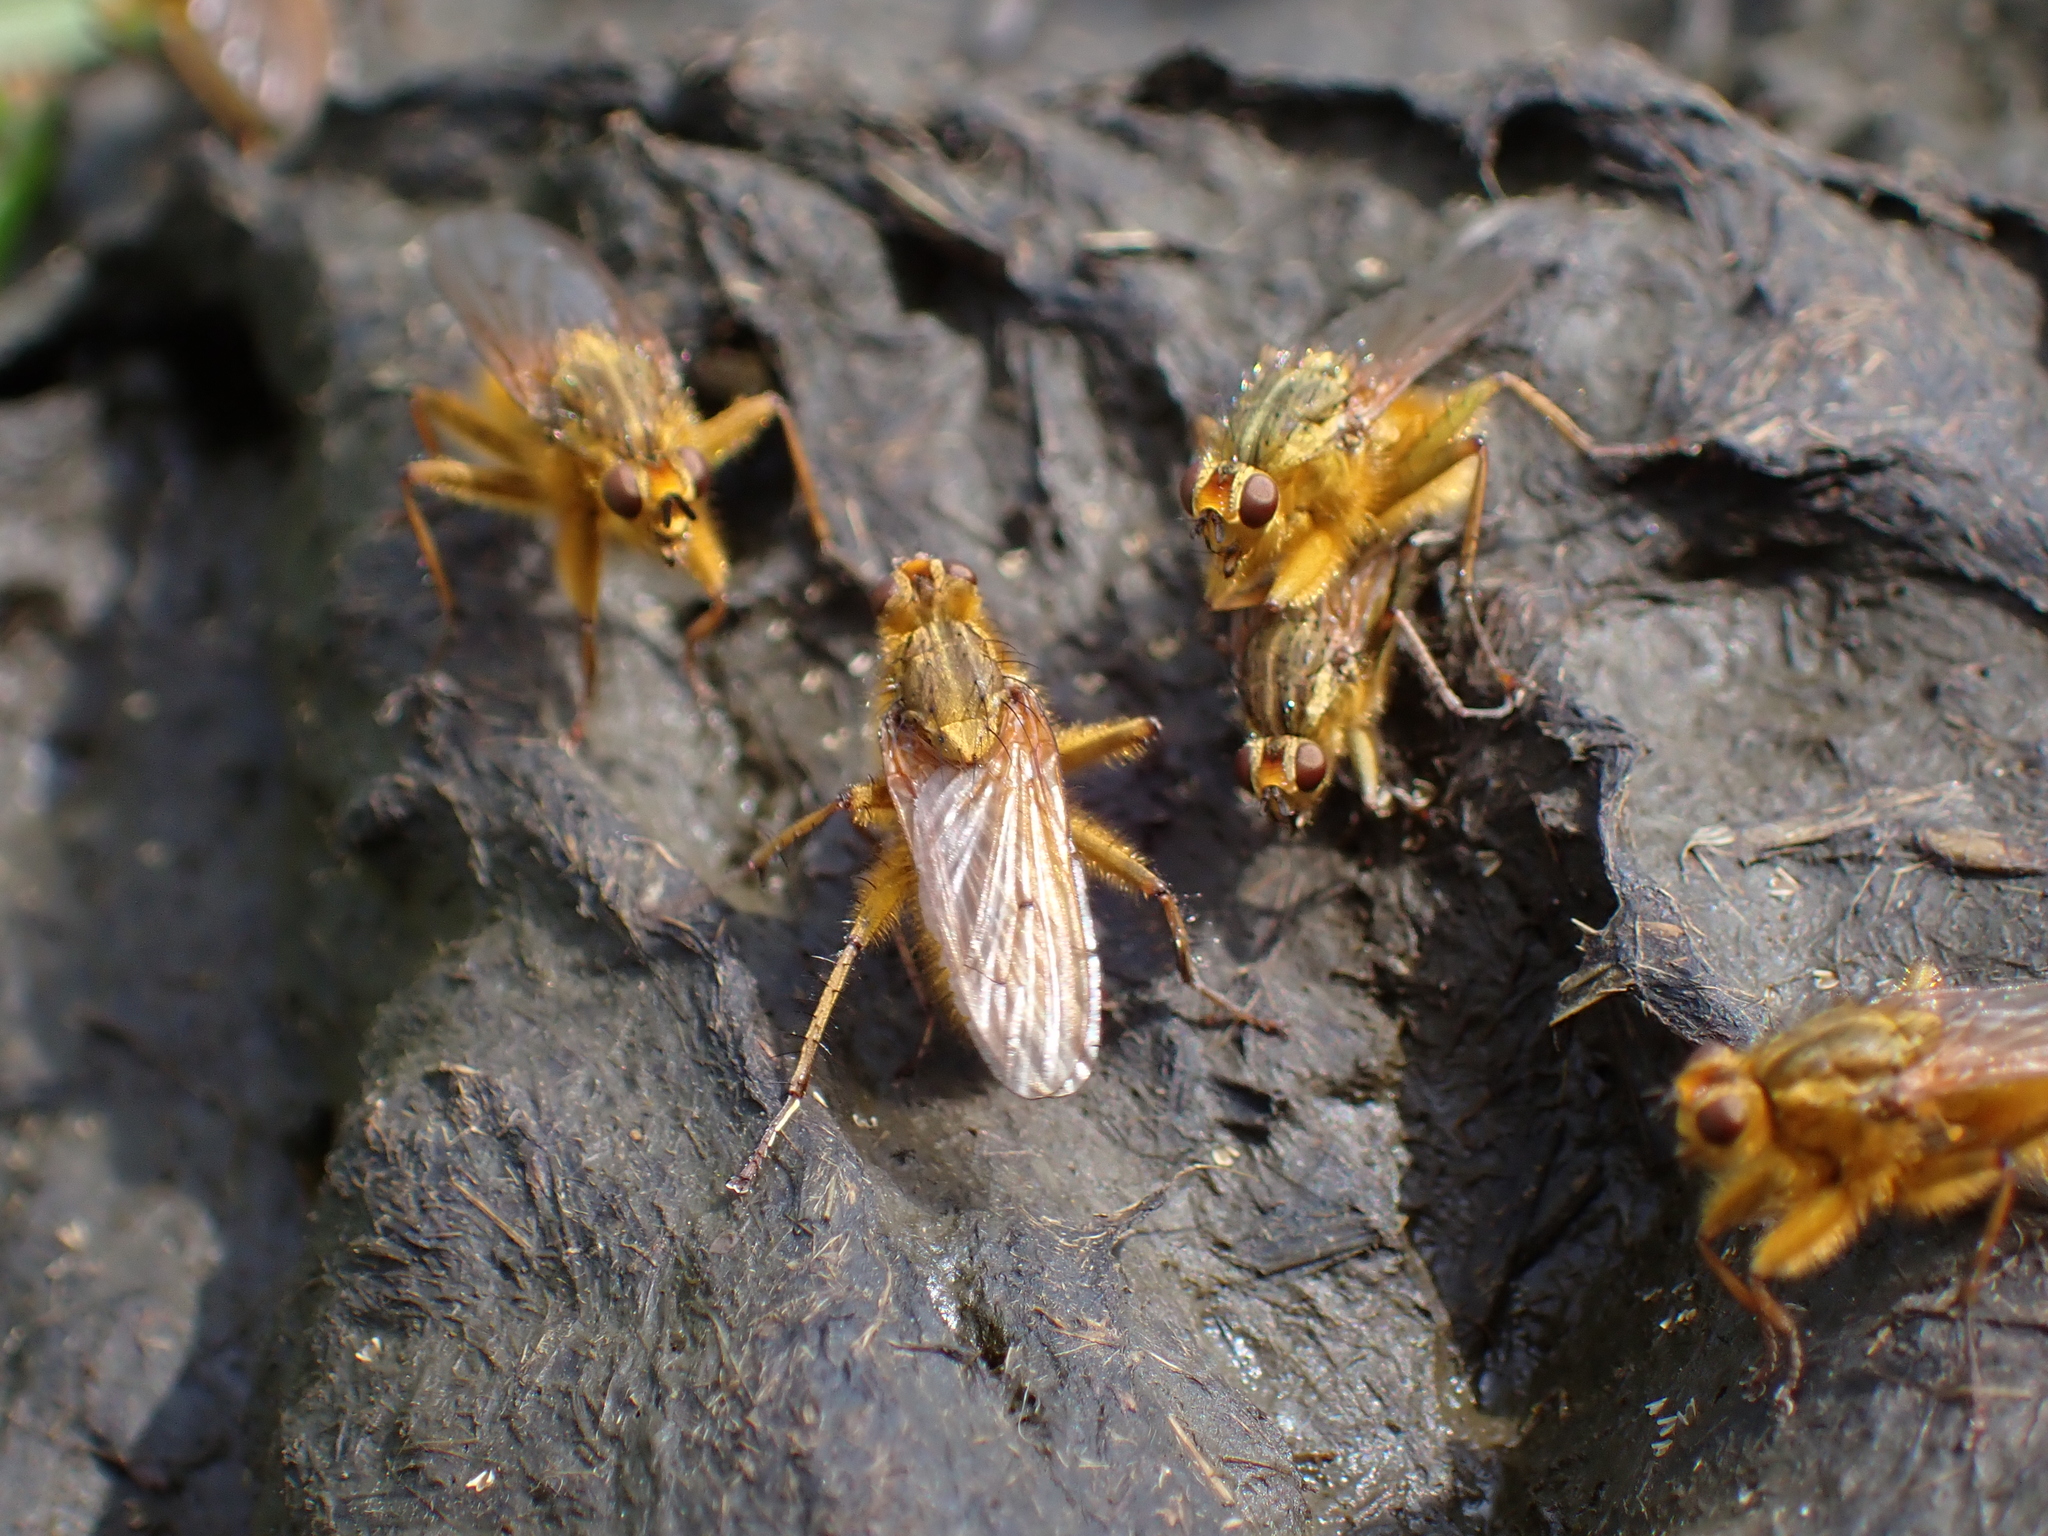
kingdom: Animalia
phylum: Arthropoda
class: Insecta
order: Diptera
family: Scathophagidae
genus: Scathophaga
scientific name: Scathophaga stercoraria
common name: Yellow dung fly
